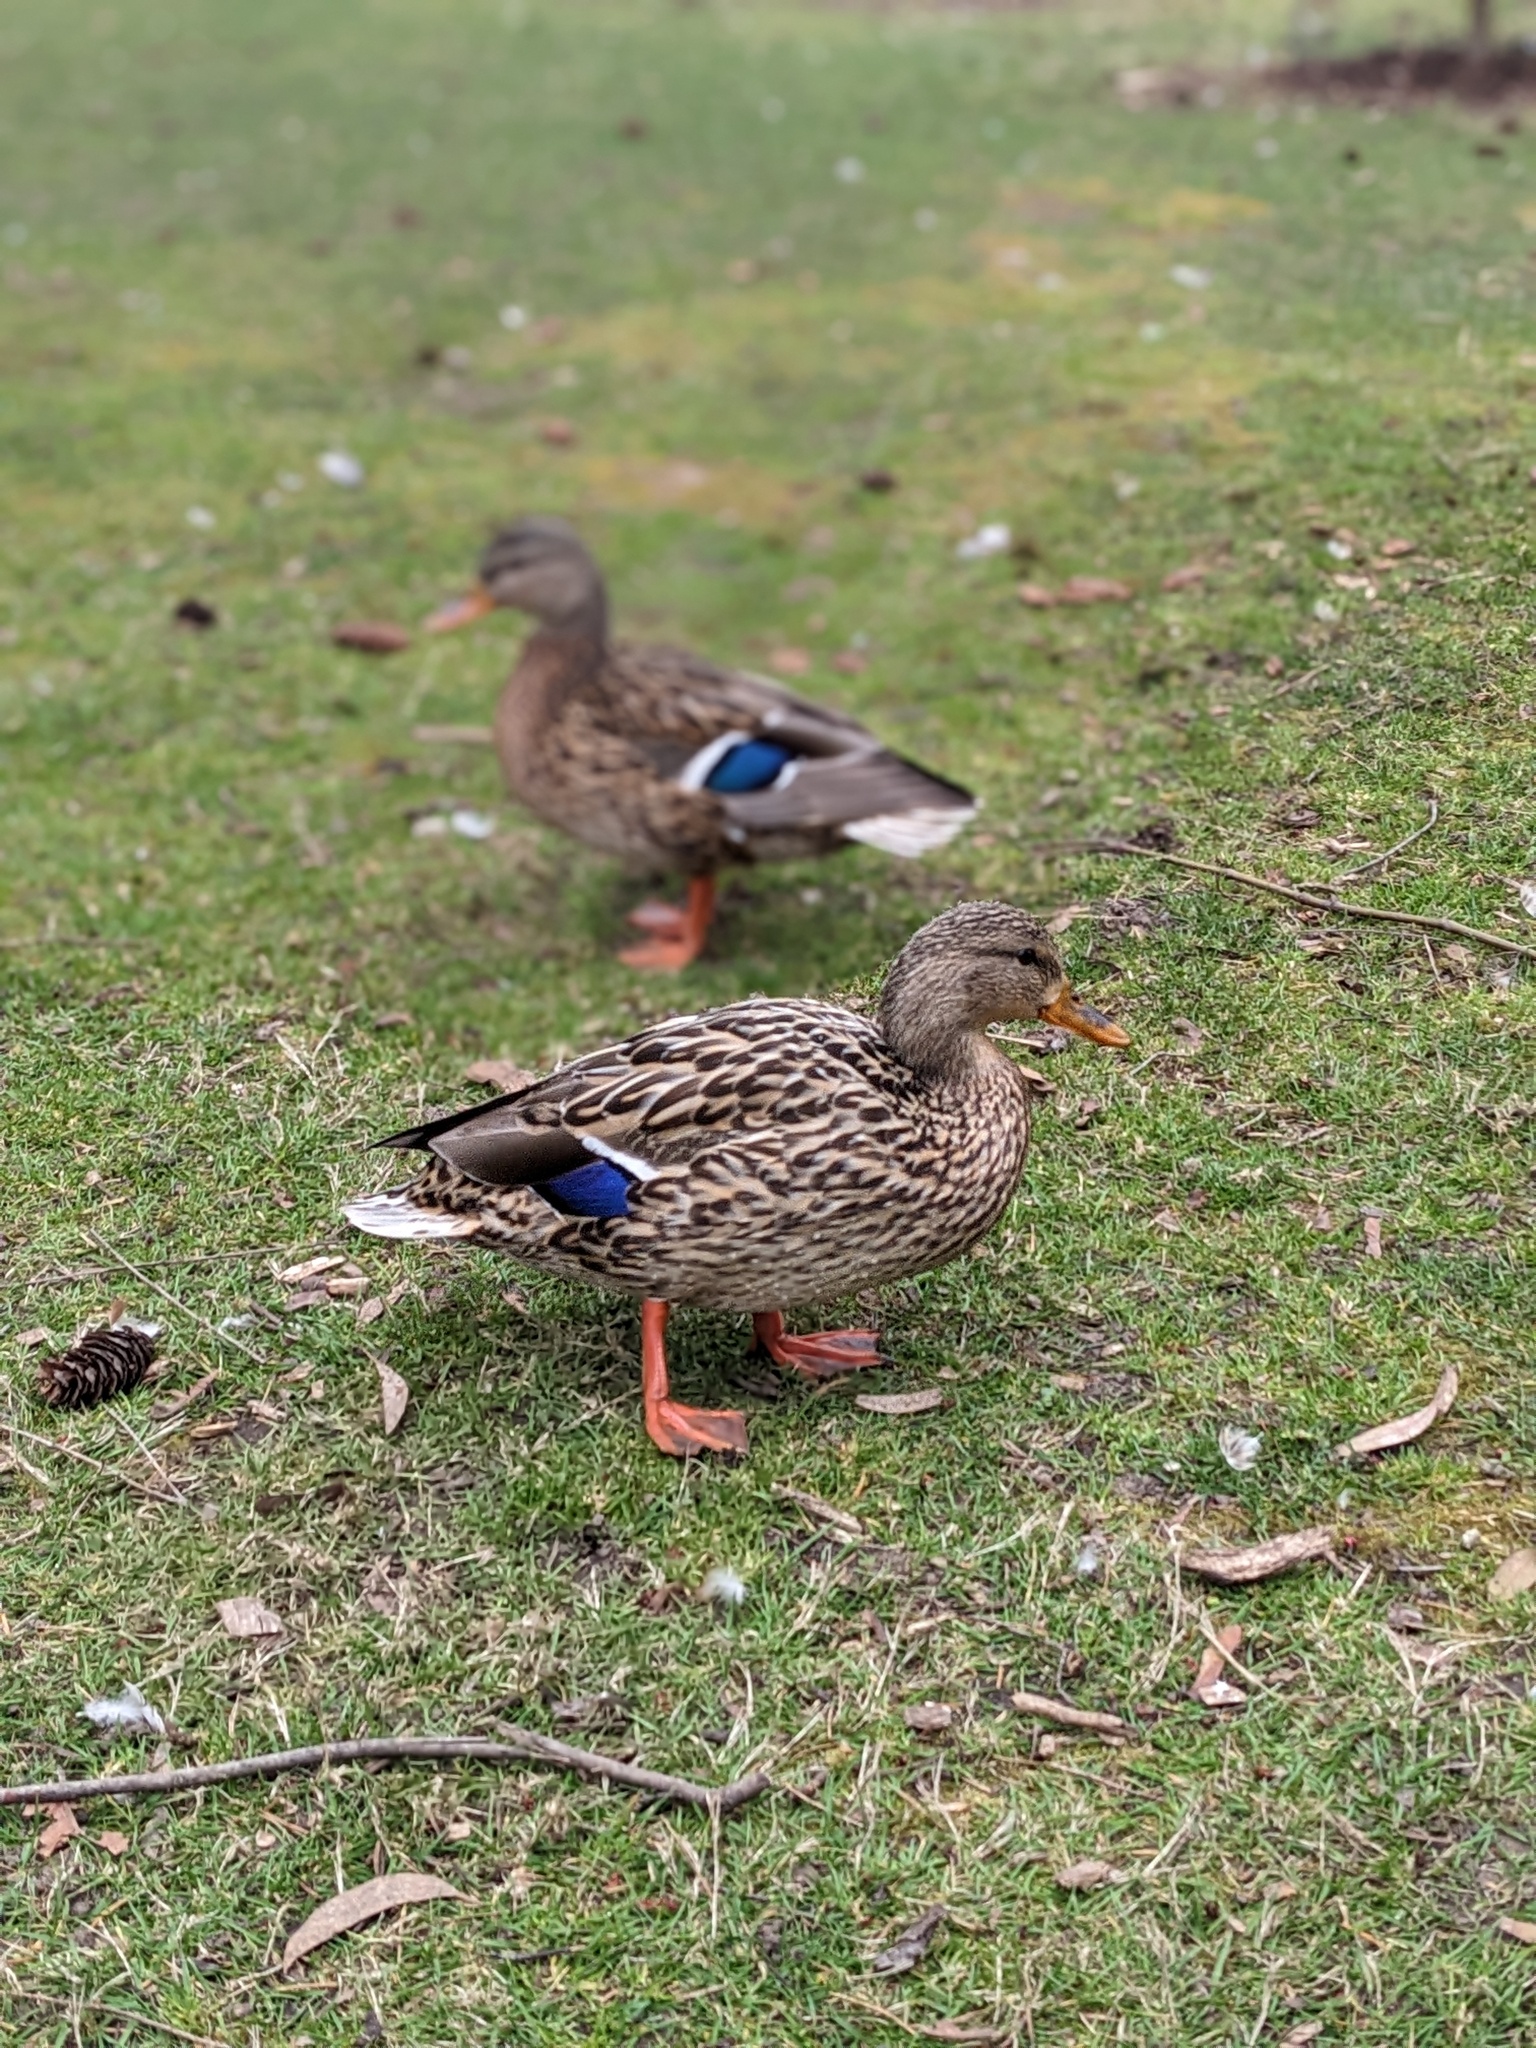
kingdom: Animalia
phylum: Chordata
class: Aves
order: Anseriformes
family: Anatidae
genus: Anas
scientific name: Anas platyrhynchos
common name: Mallard
